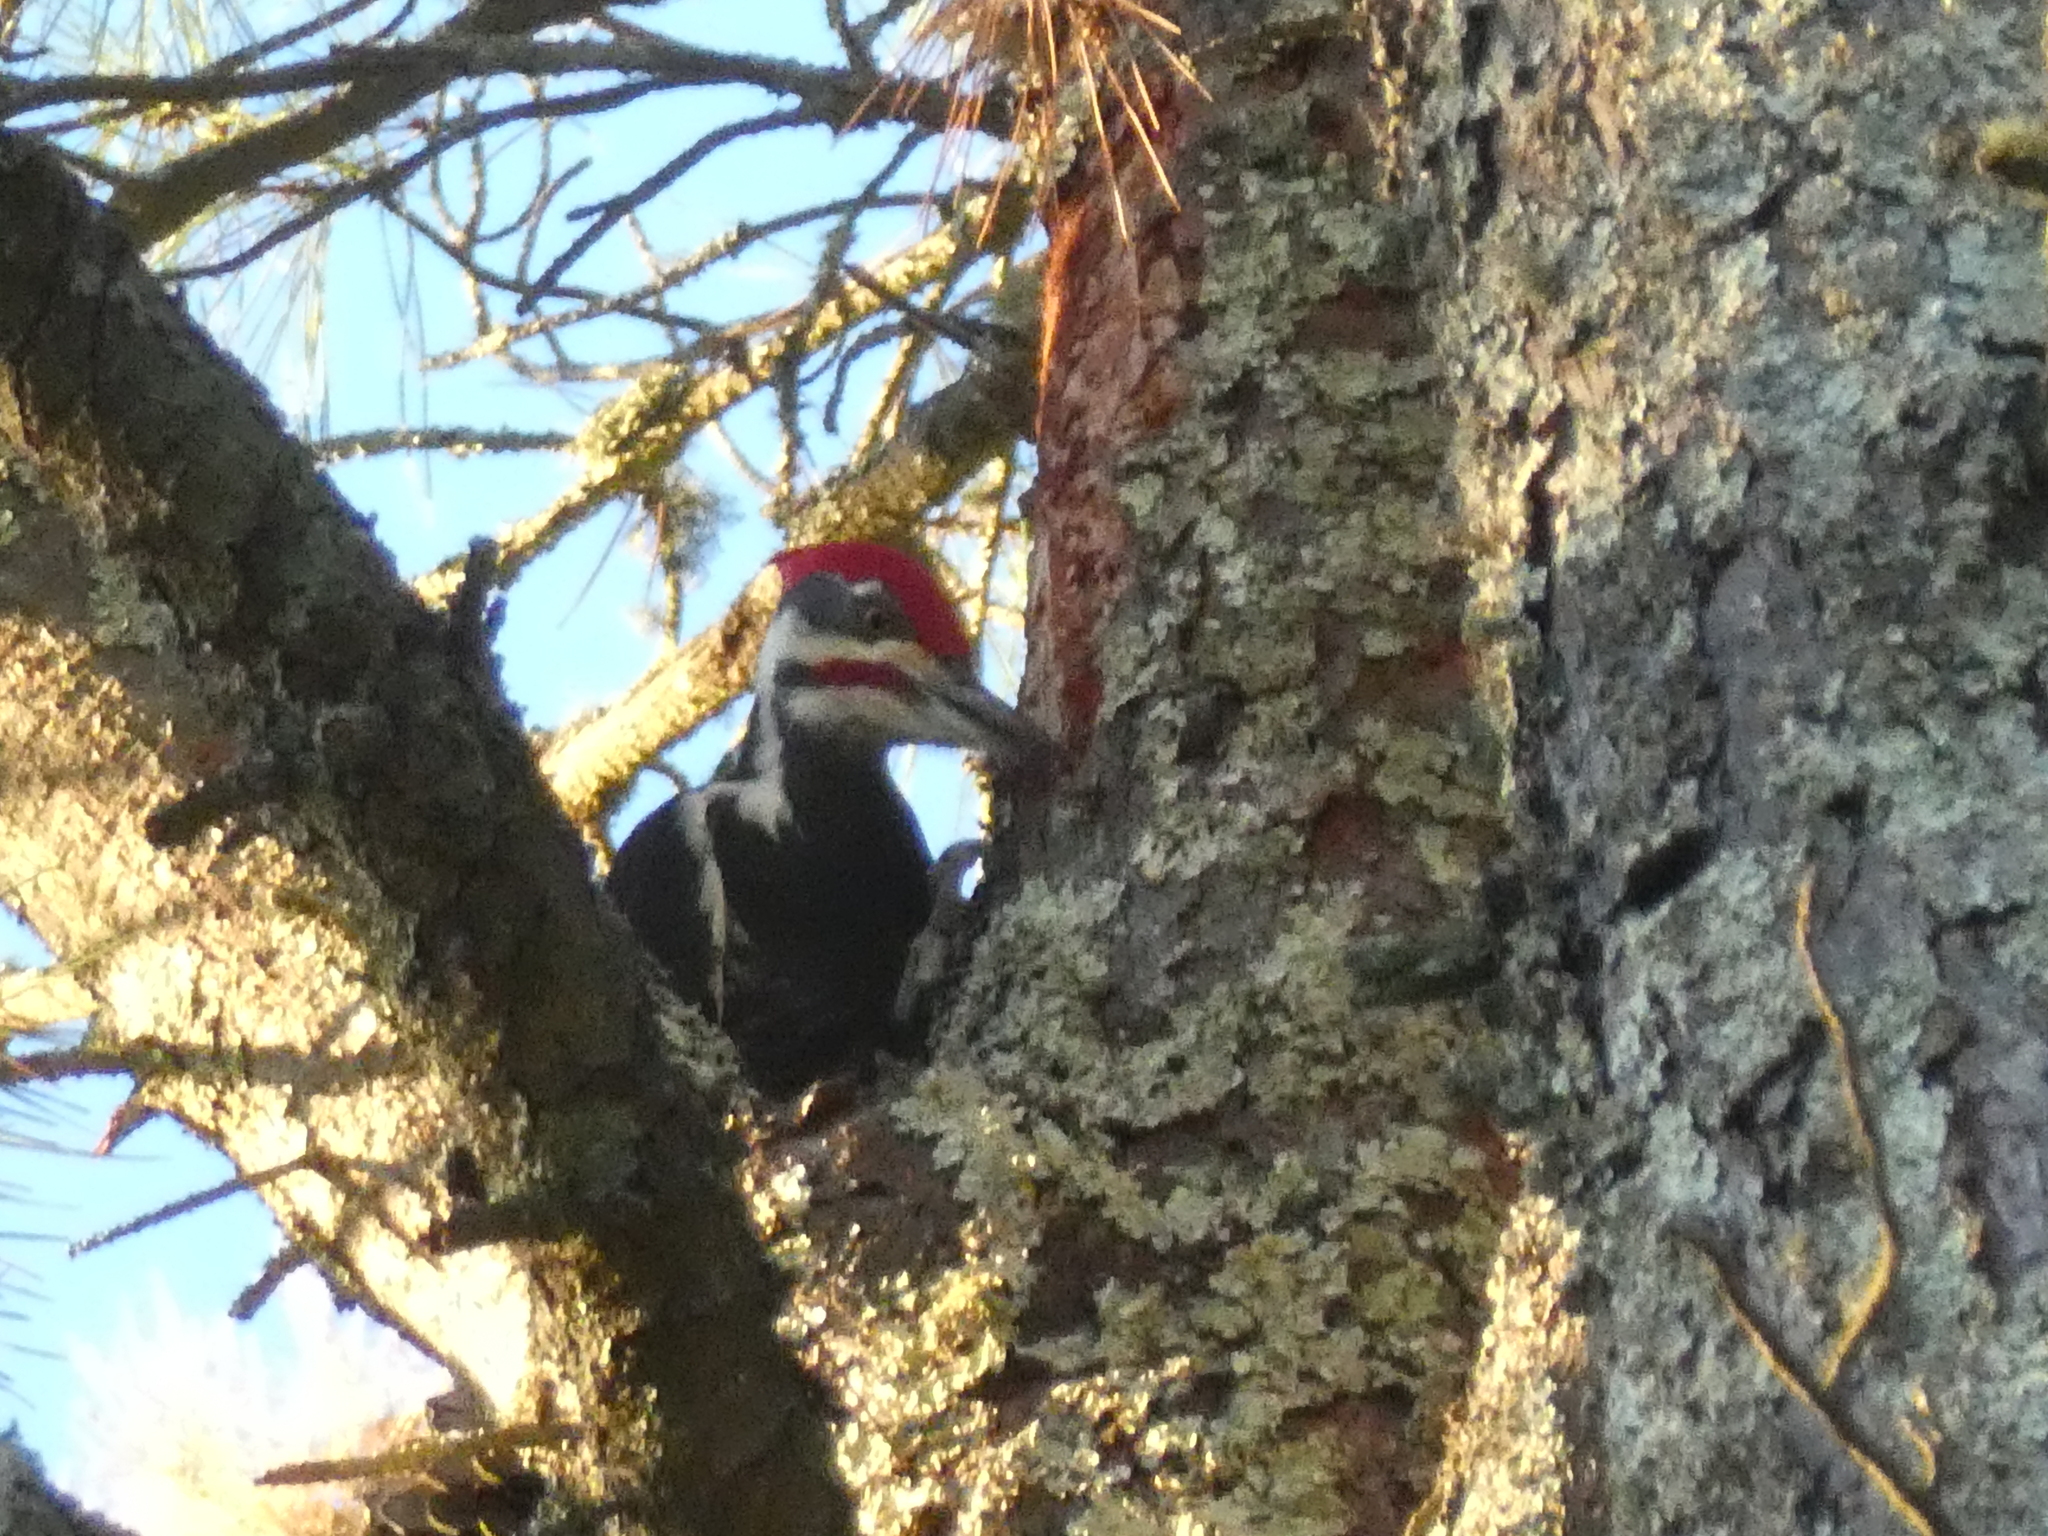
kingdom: Animalia
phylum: Chordata
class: Aves
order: Piciformes
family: Picidae
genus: Dryocopus
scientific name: Dryocopus pileatus
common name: Pileated woodpecker
